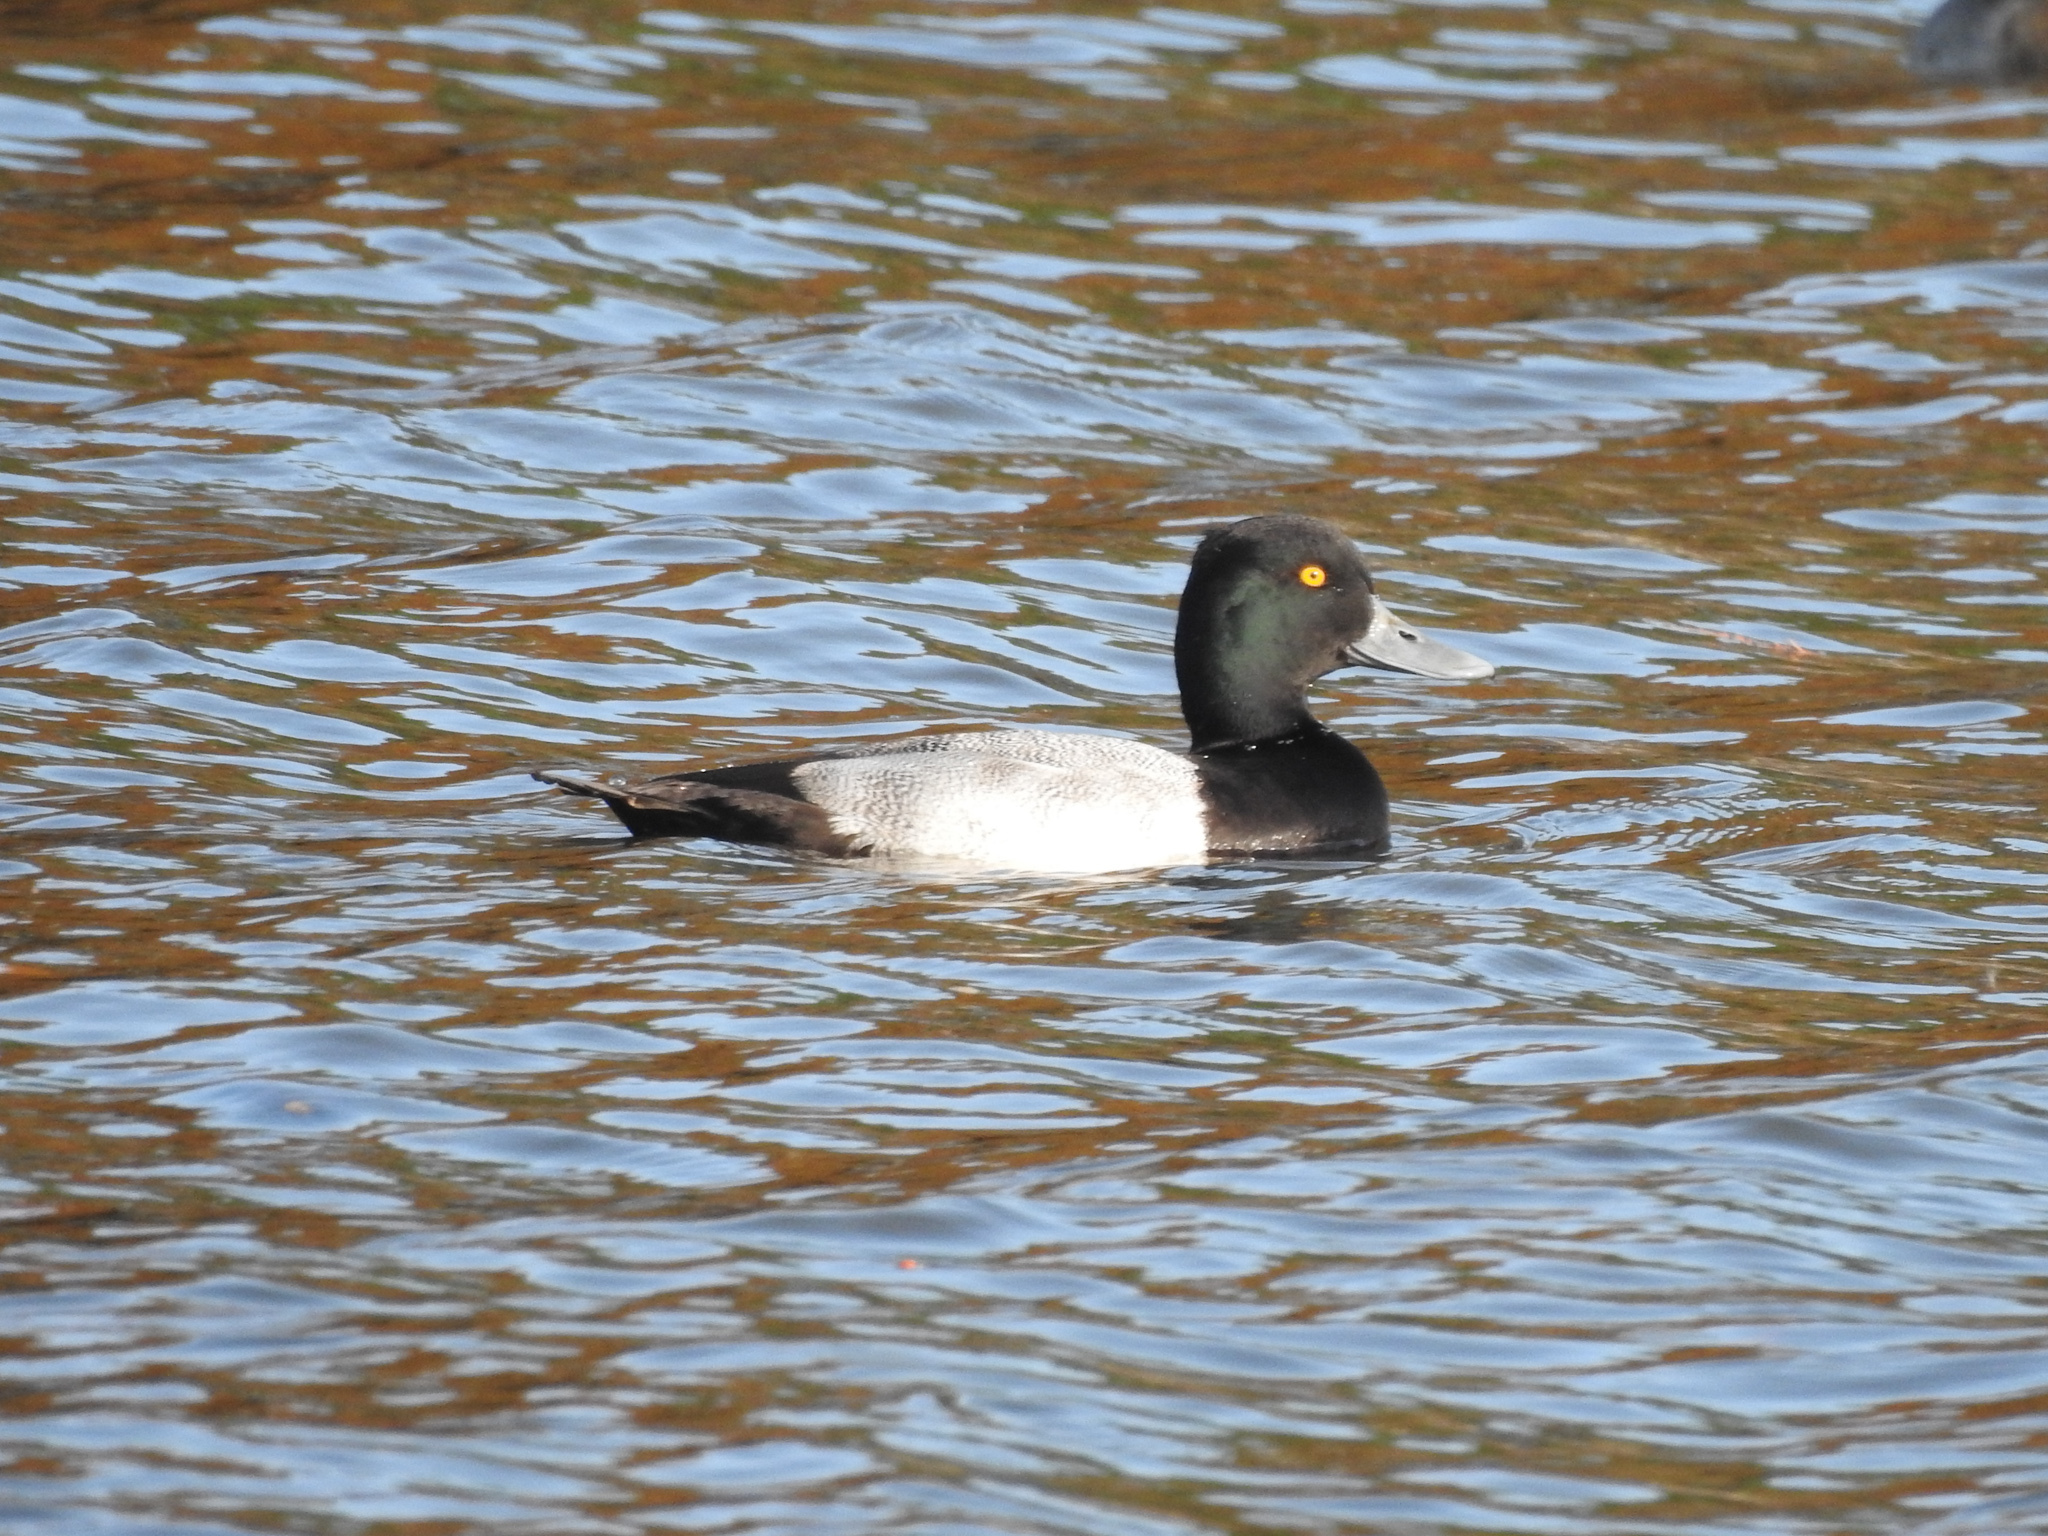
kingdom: Animalia
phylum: Chordata
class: Aves
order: Anseriformes
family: Anatidae
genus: Aythya
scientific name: Aythya affinis
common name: Lesser scaup
